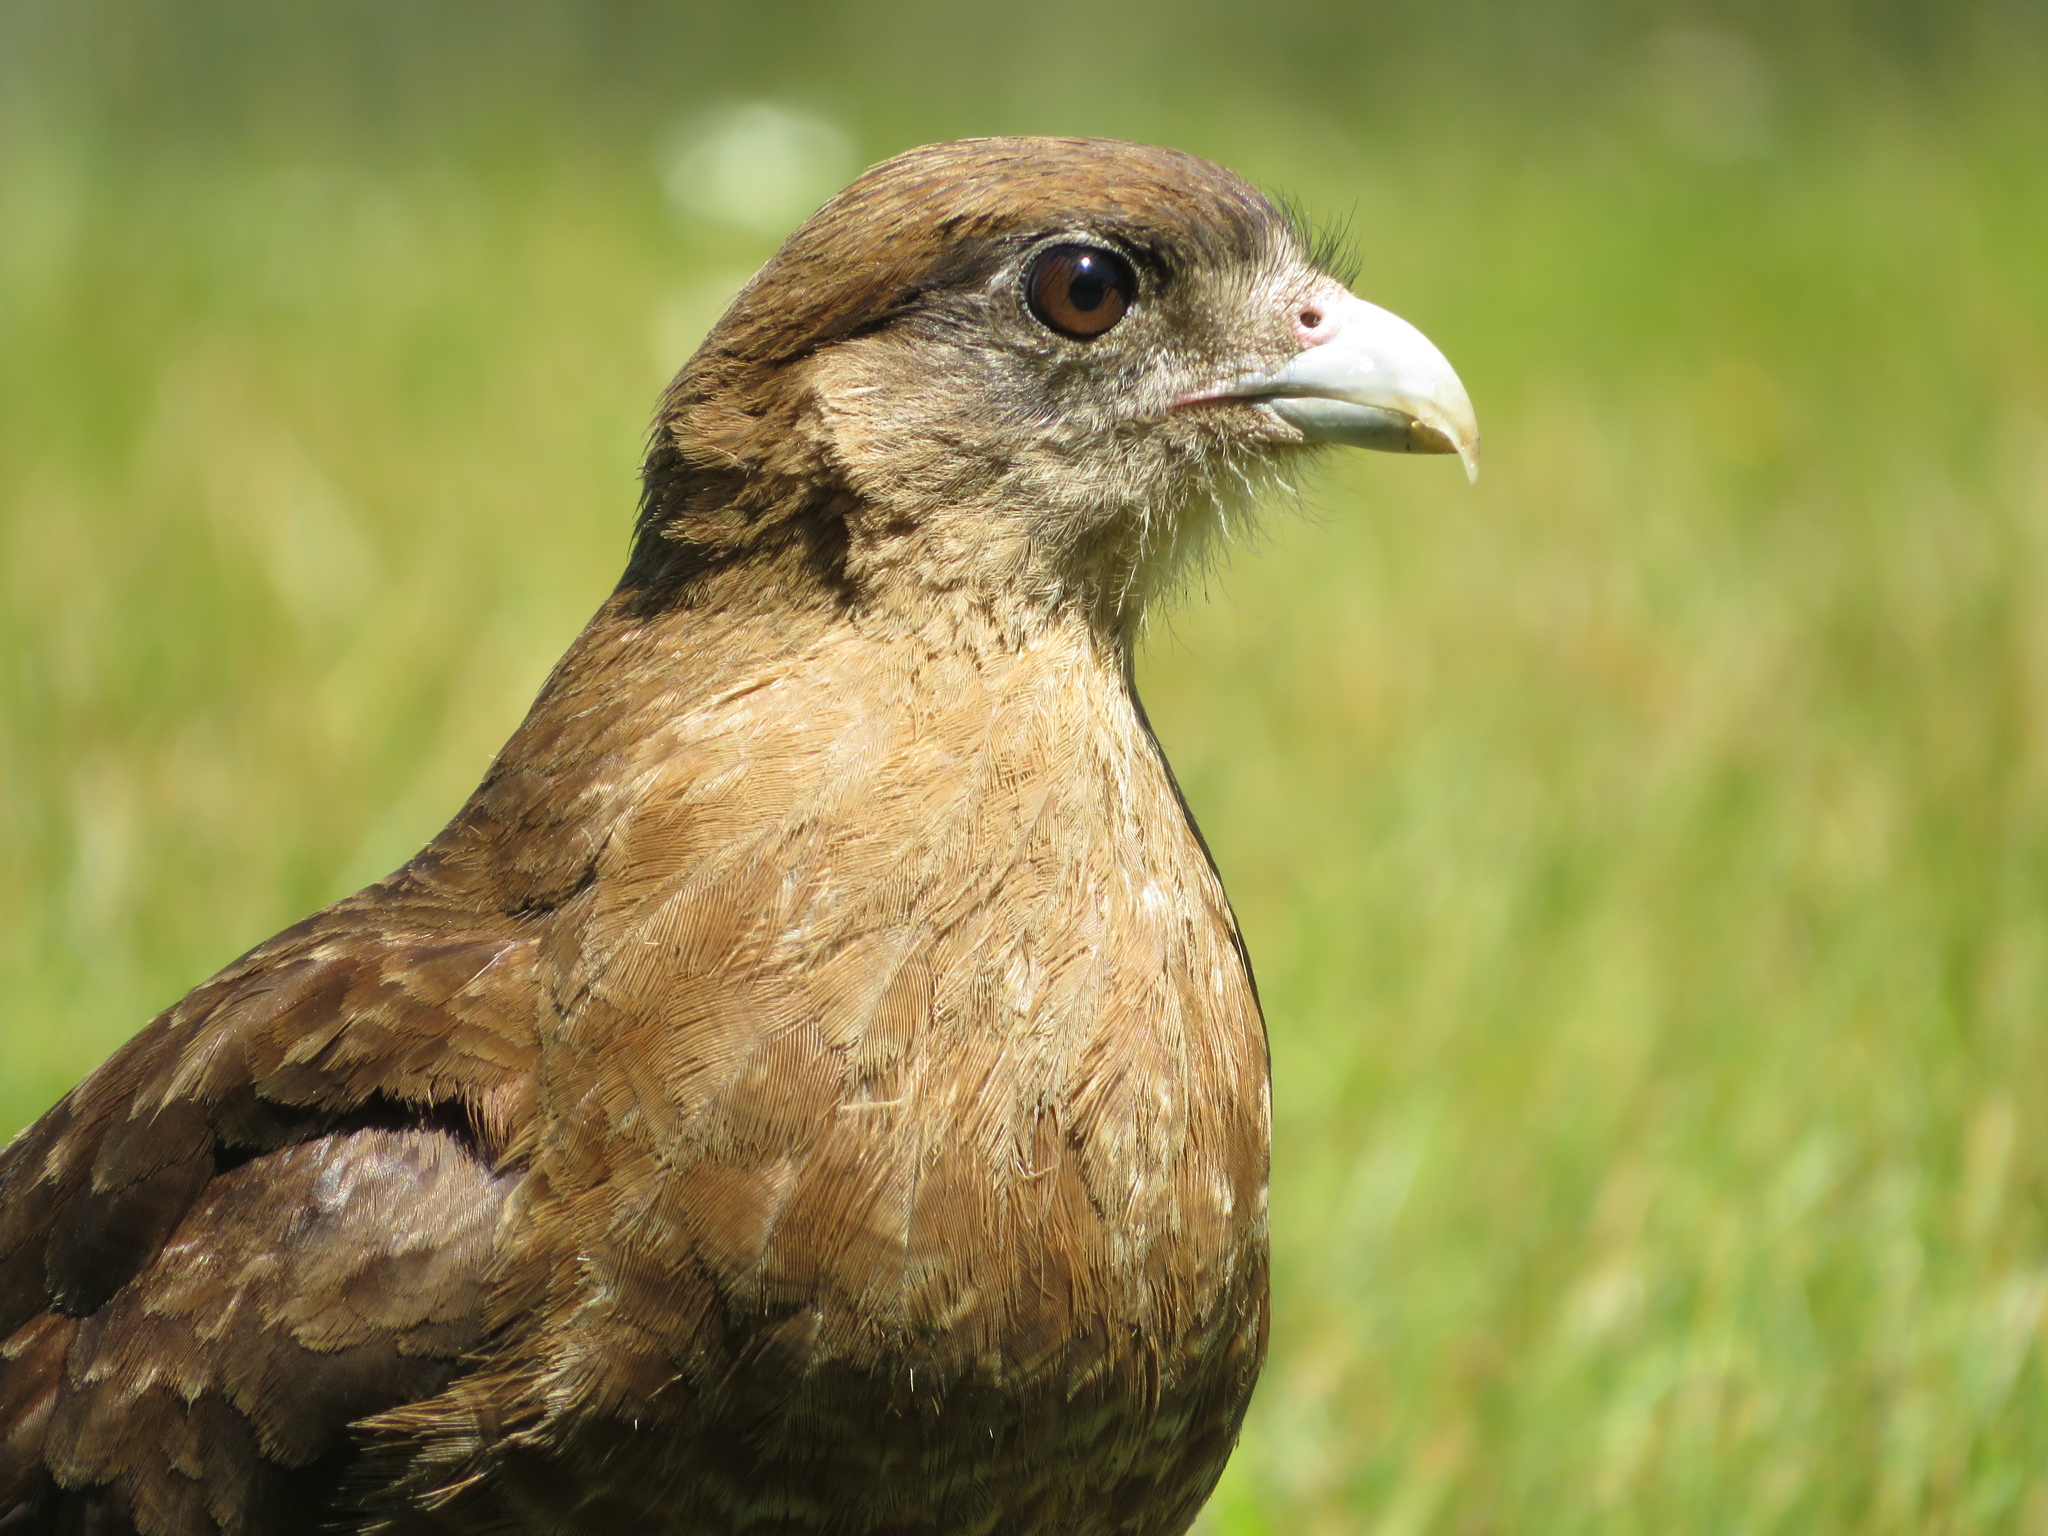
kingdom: Animalia
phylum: Chordata
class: Aves
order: Falconiformes
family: Falconidae
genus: Daptrius
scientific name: Daptrius
